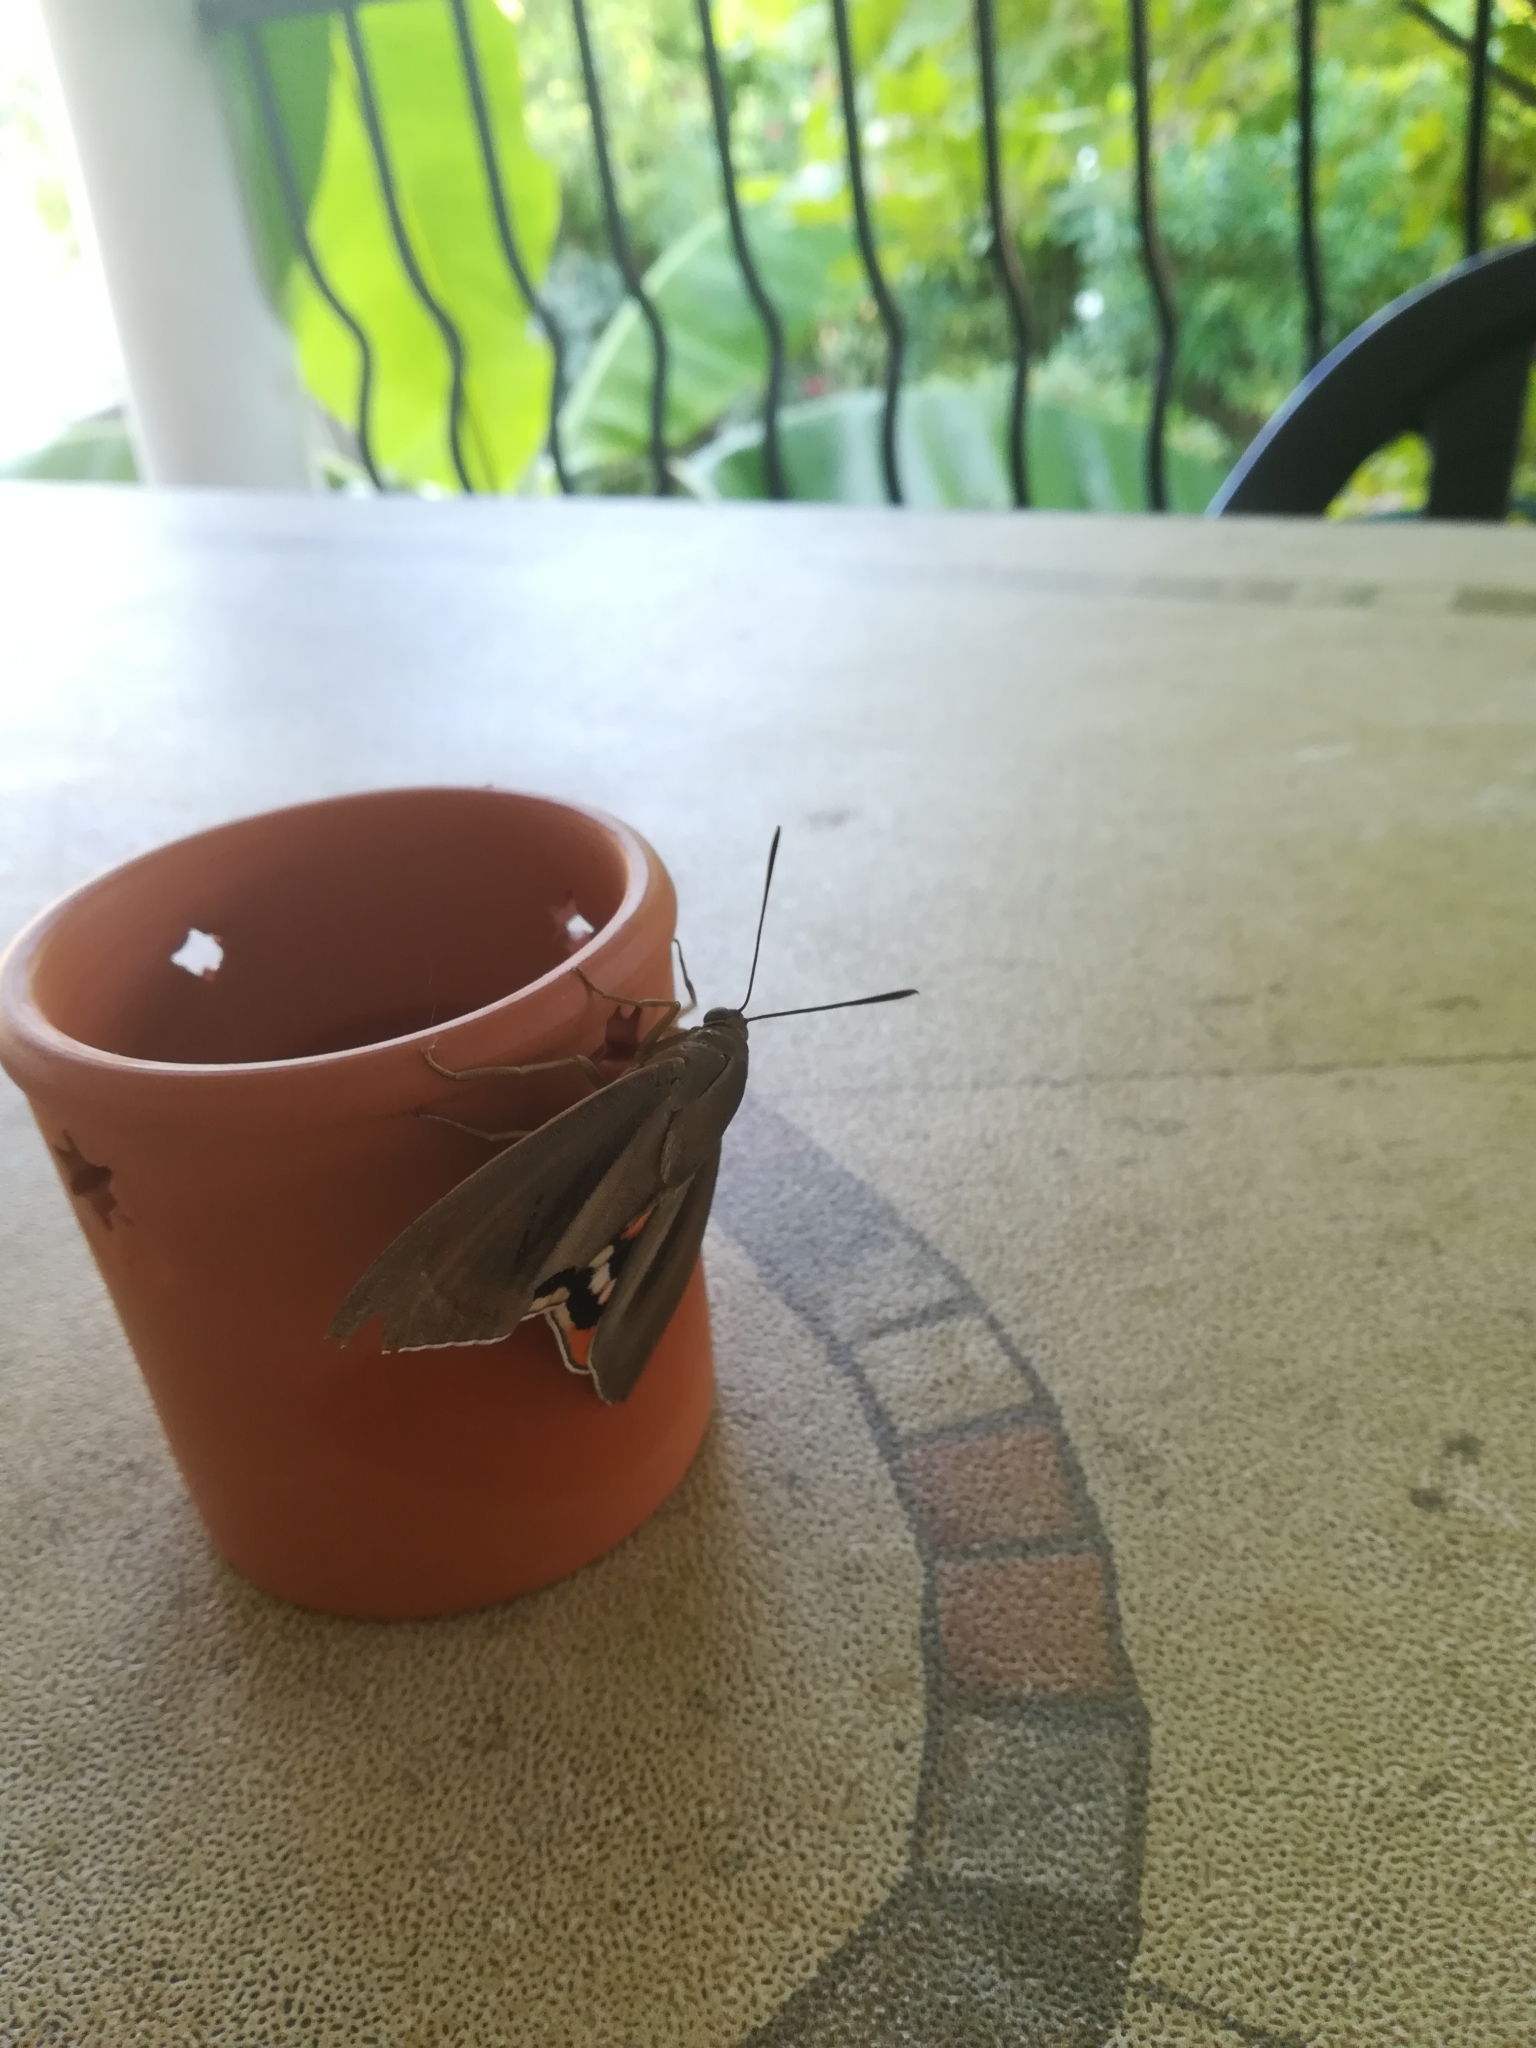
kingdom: Animalia
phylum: Arthropoda
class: Insecta
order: Lepidoptera
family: Castniidae
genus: Paysandisia
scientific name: Paysandisia archon
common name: Palm moth
